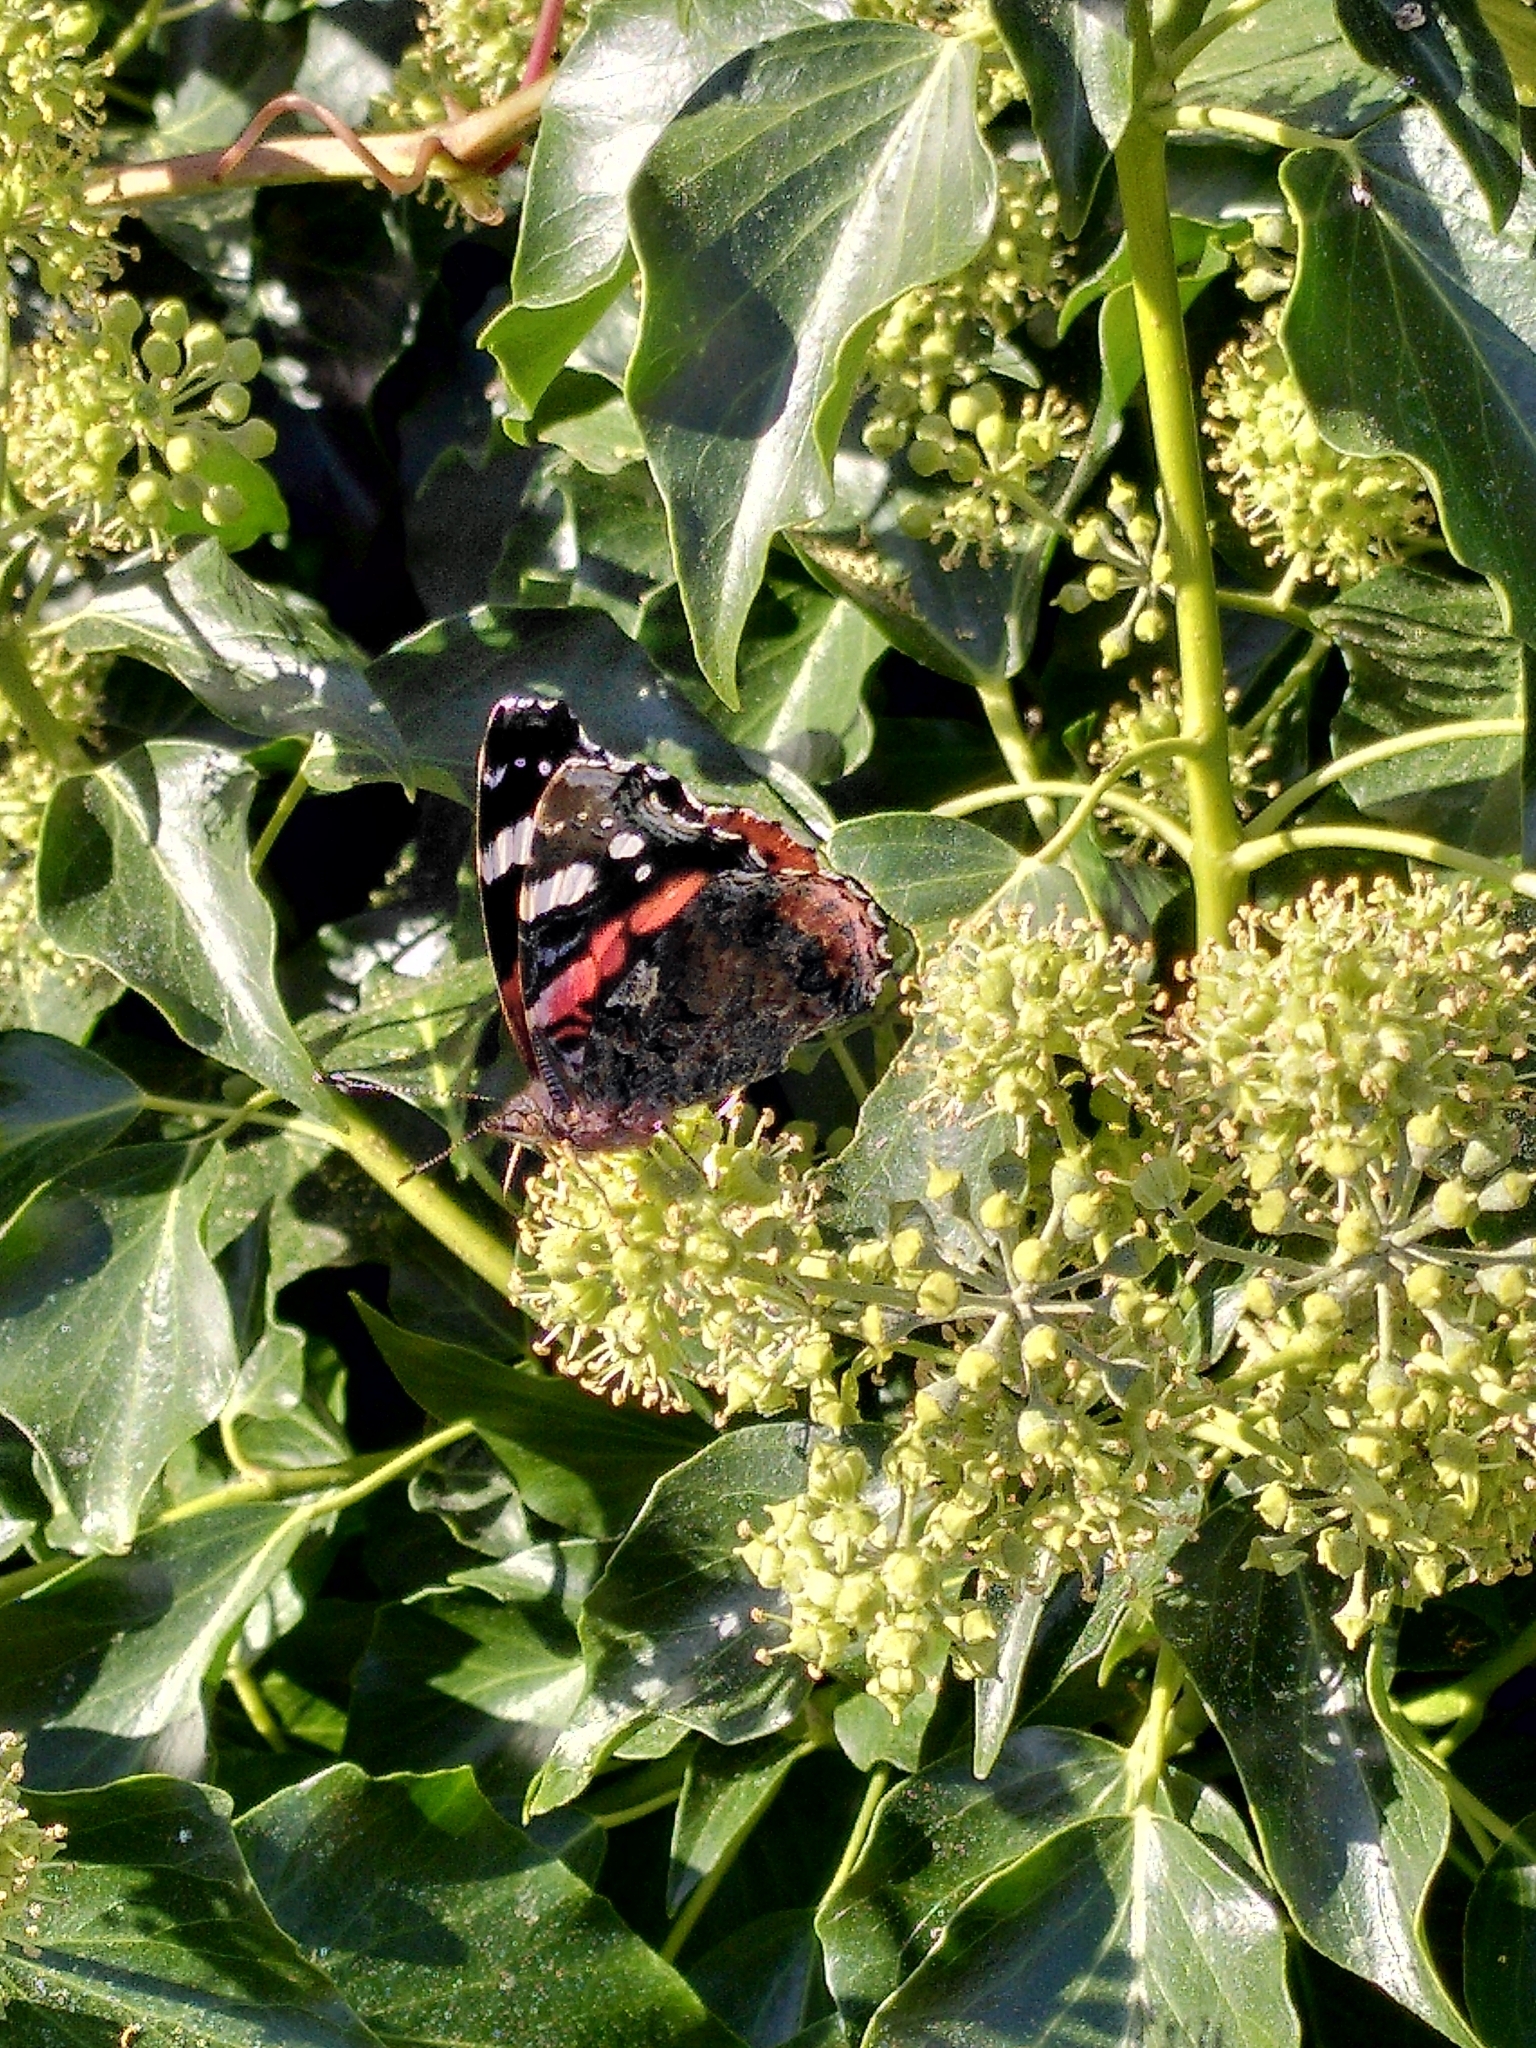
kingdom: Animalia
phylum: Arthropoda
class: Insecta
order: Lepidoptera
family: Nymphalidae
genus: Vanessa
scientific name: Vanessa atalanta
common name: Red admiral
